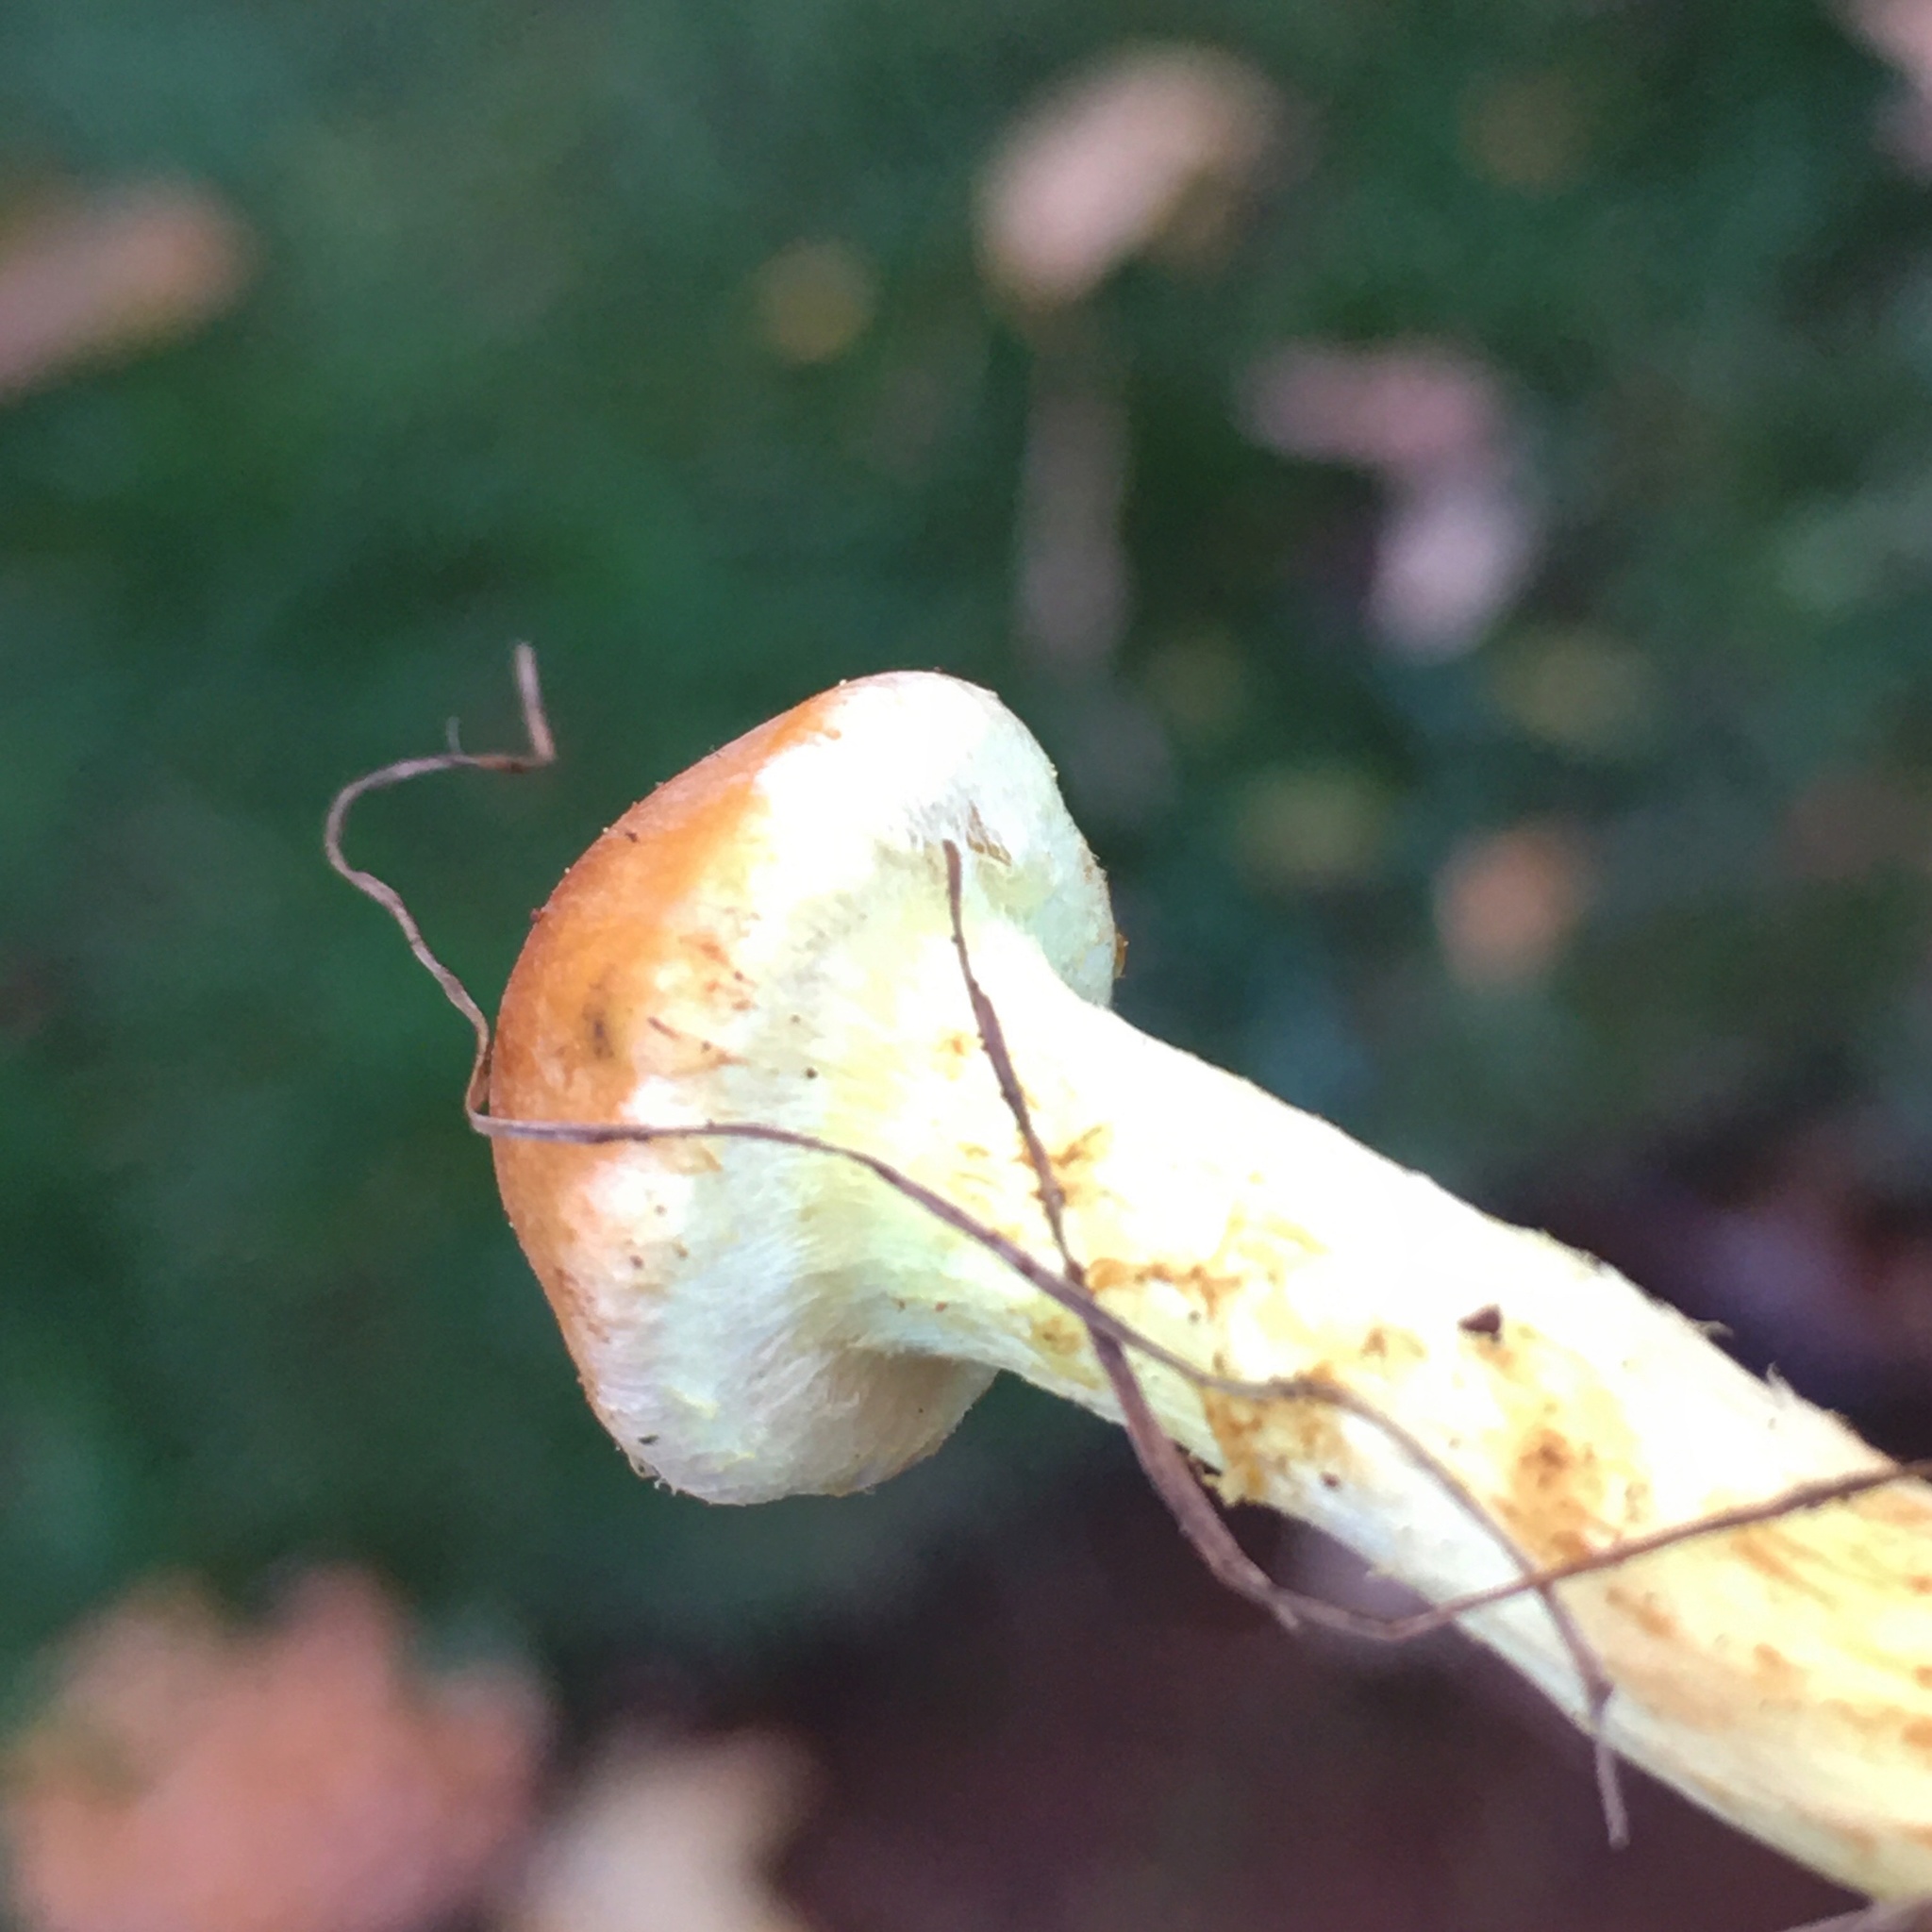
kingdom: Fungi
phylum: Basidiomycota
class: Agaricomycetes
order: Agaricales
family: Strophariaceae
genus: Hypholoma
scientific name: Hypholoma fasciculare
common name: Sulphur tuft
